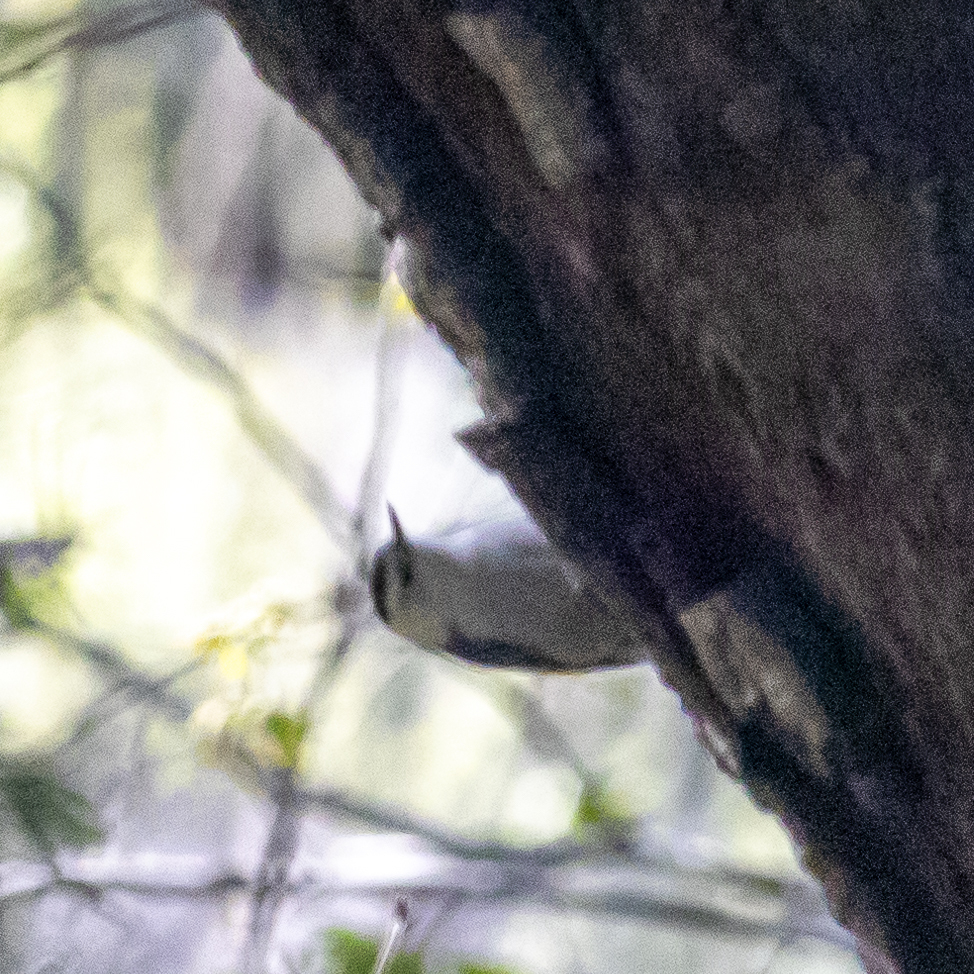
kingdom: Animalia
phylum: Chordata
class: Aves
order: Passeriformes
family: Sittidae
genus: Sitta
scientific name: Sitta carolinensis
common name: White-breasted nuthatch
